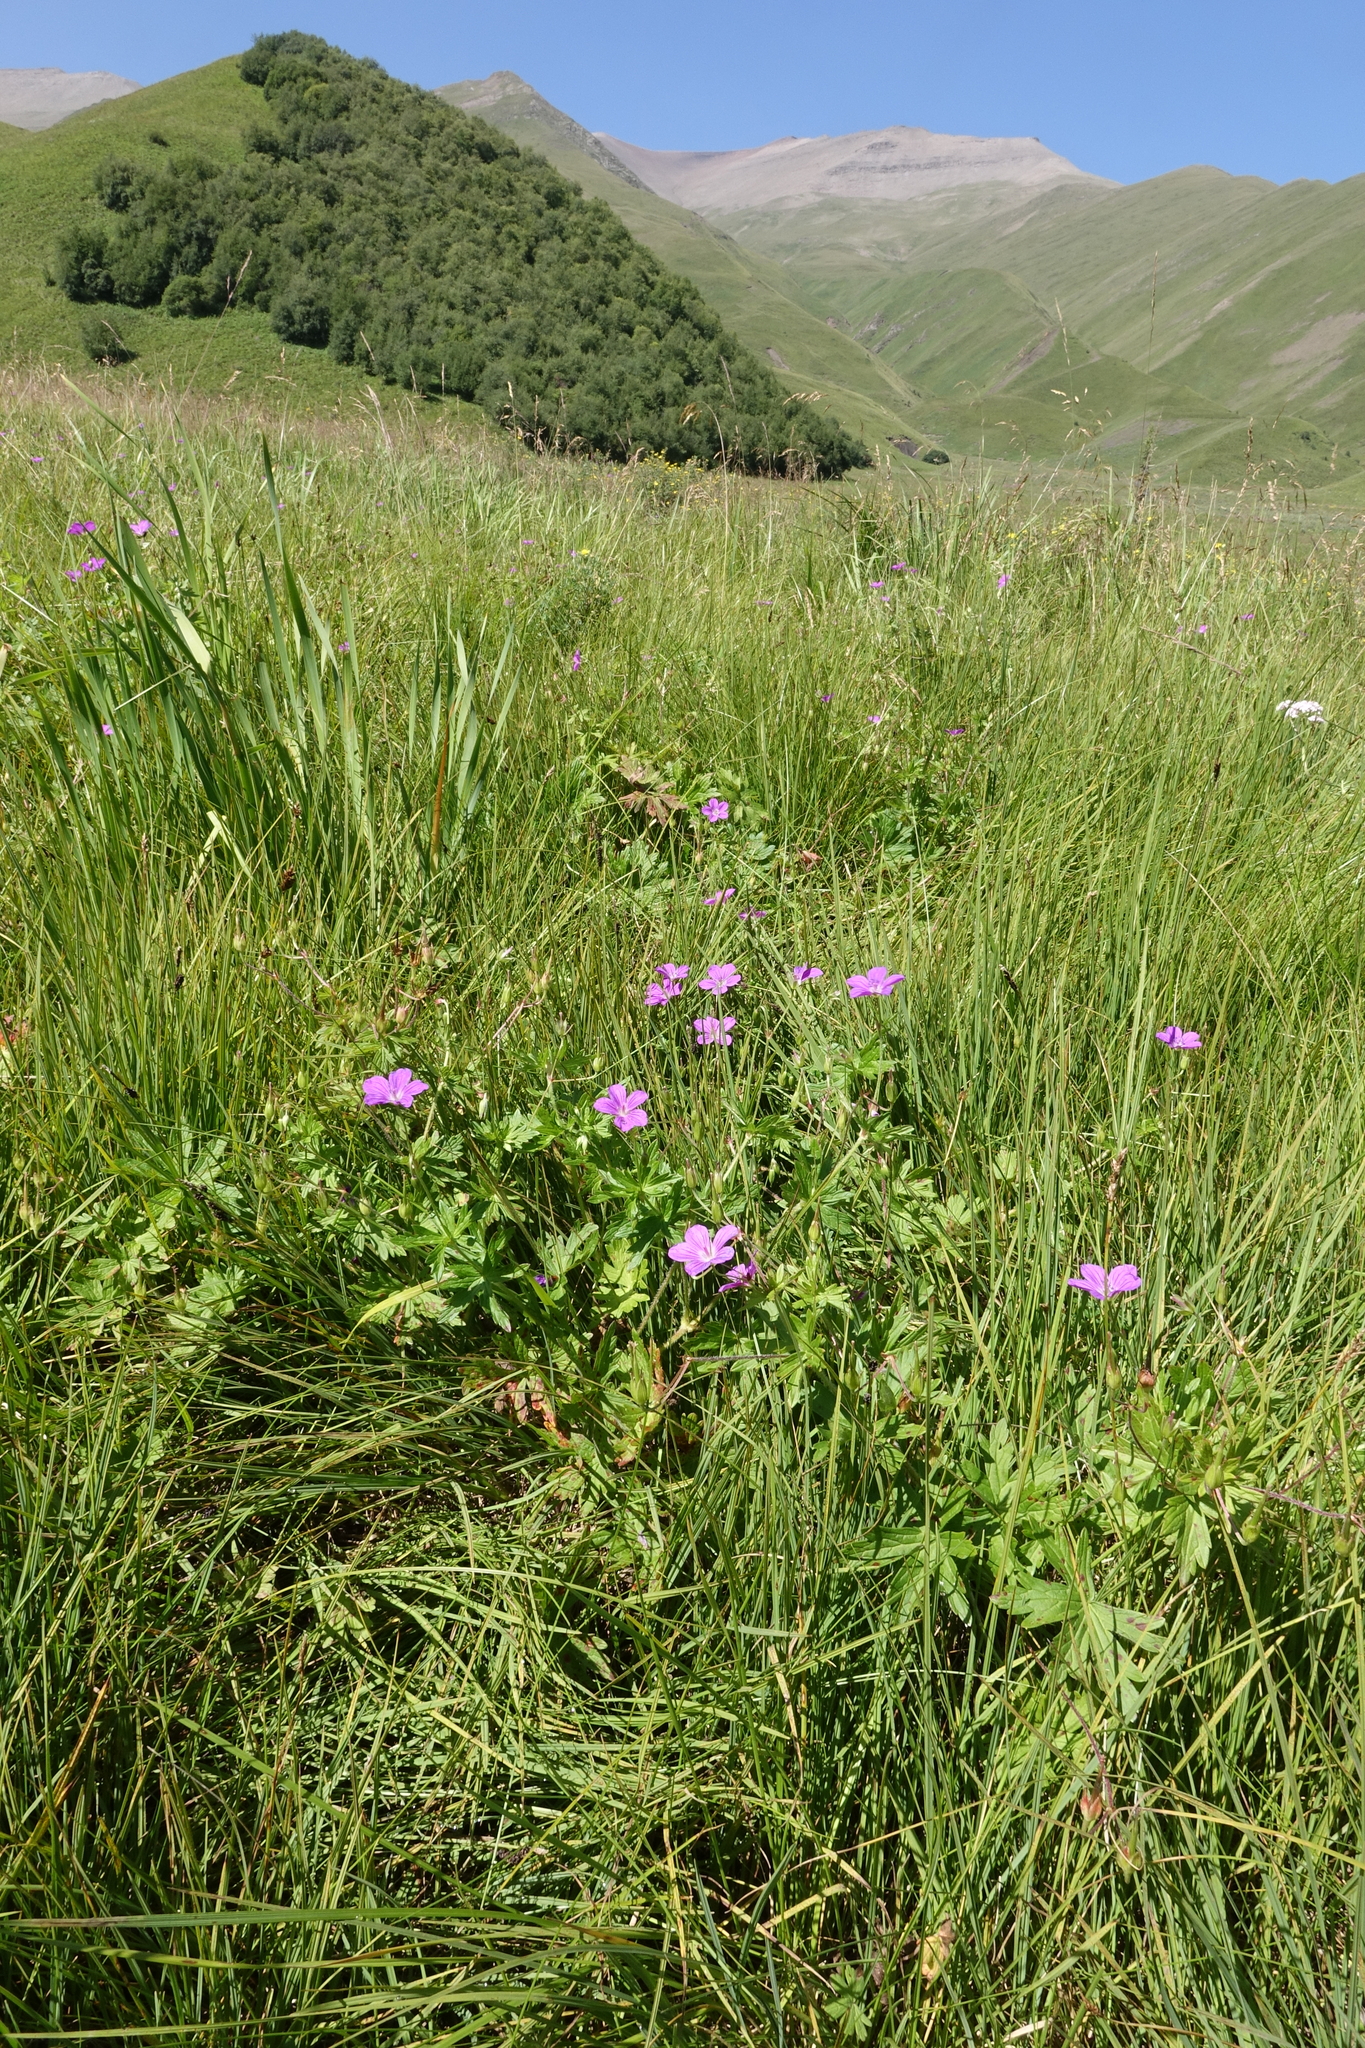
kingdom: Plantae
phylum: Tracheophyta
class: Magnoliopsida
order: Geraniales
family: Geraniaceae
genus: Geranium
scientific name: Geranium palustre
